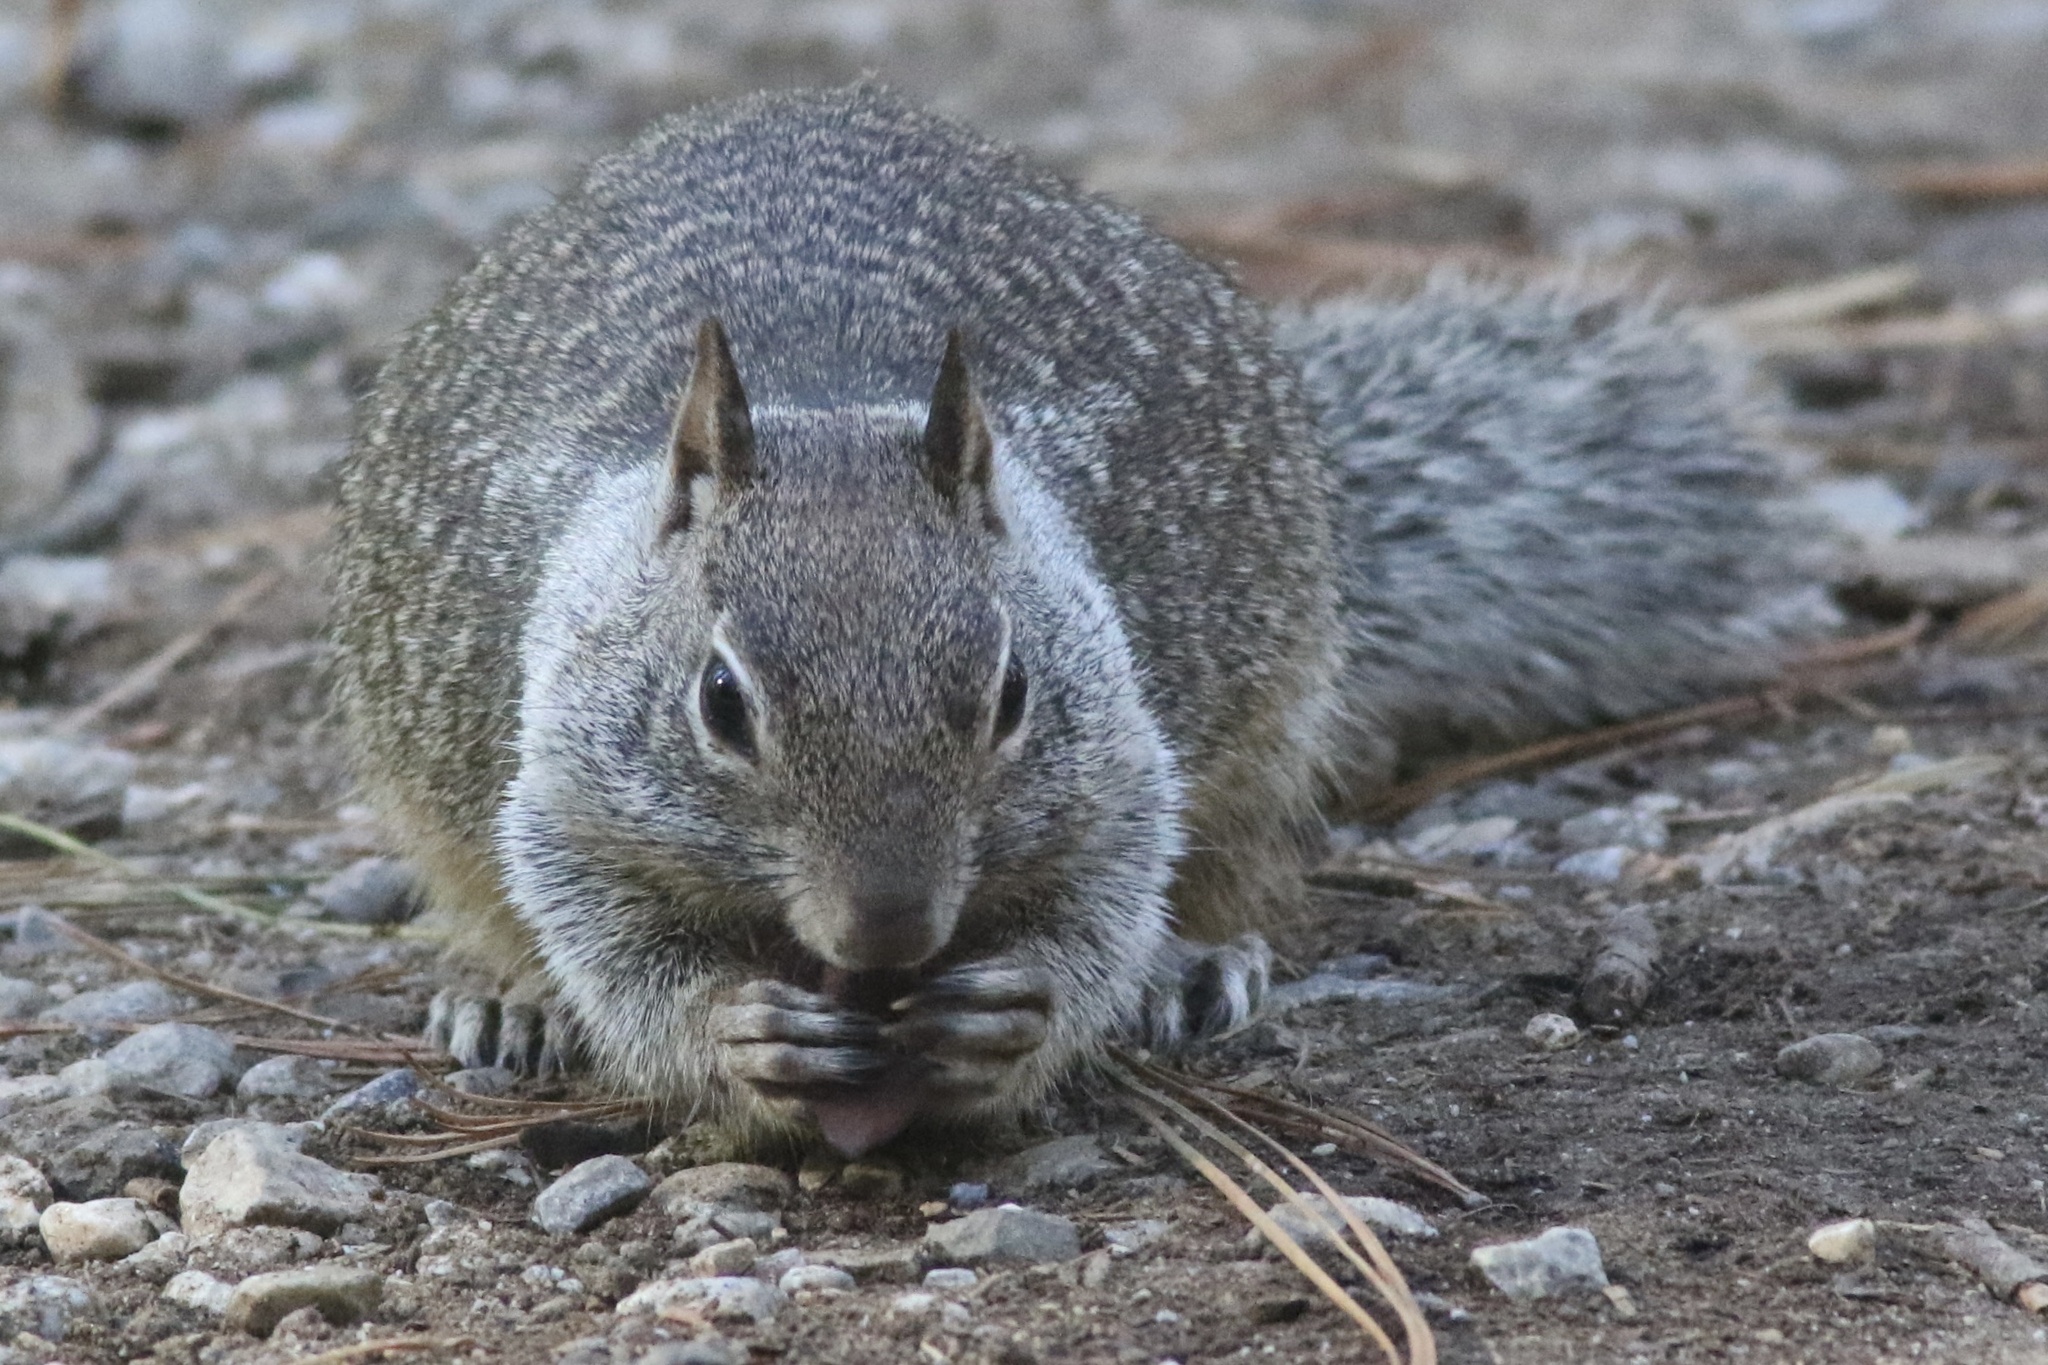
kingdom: Animalia
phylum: Chordata
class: Mammalia
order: Rodentia
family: Sciuridae
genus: Otospermophilus
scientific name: Otospermophilus beecheyi
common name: California ground squirrel
